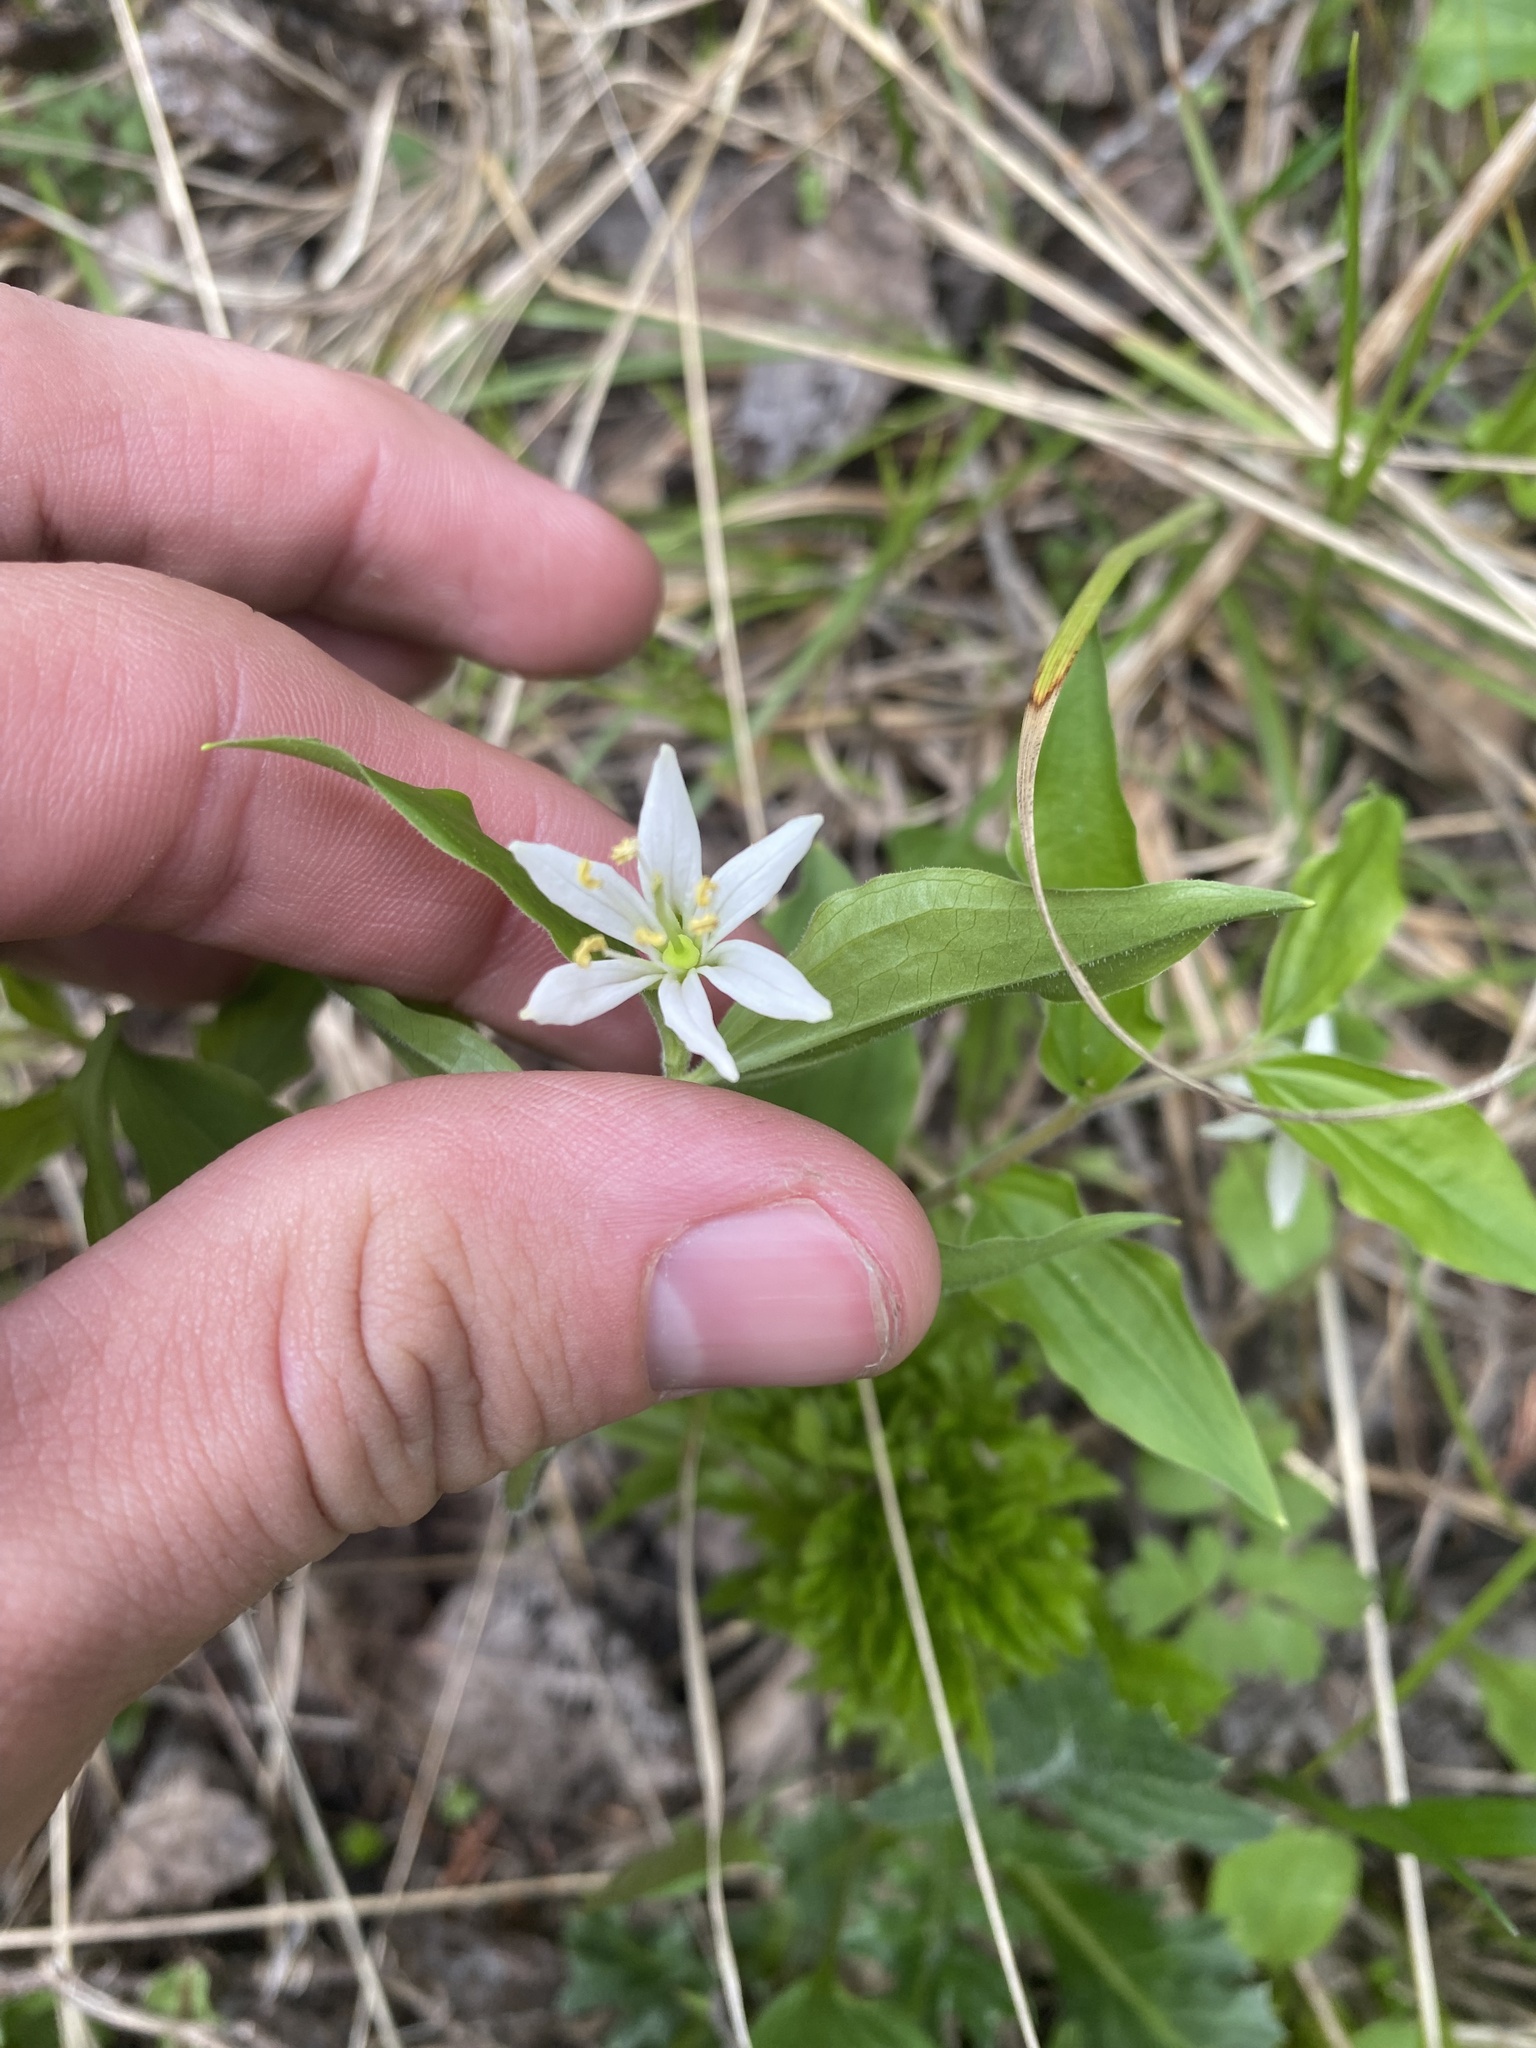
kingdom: Plantae
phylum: Tracheophyta
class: Liliopsida
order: Liliales
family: Liliaceae
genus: Prosartes
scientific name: Prosartes trachycarpa
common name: Rough-fruit fairy-bells
